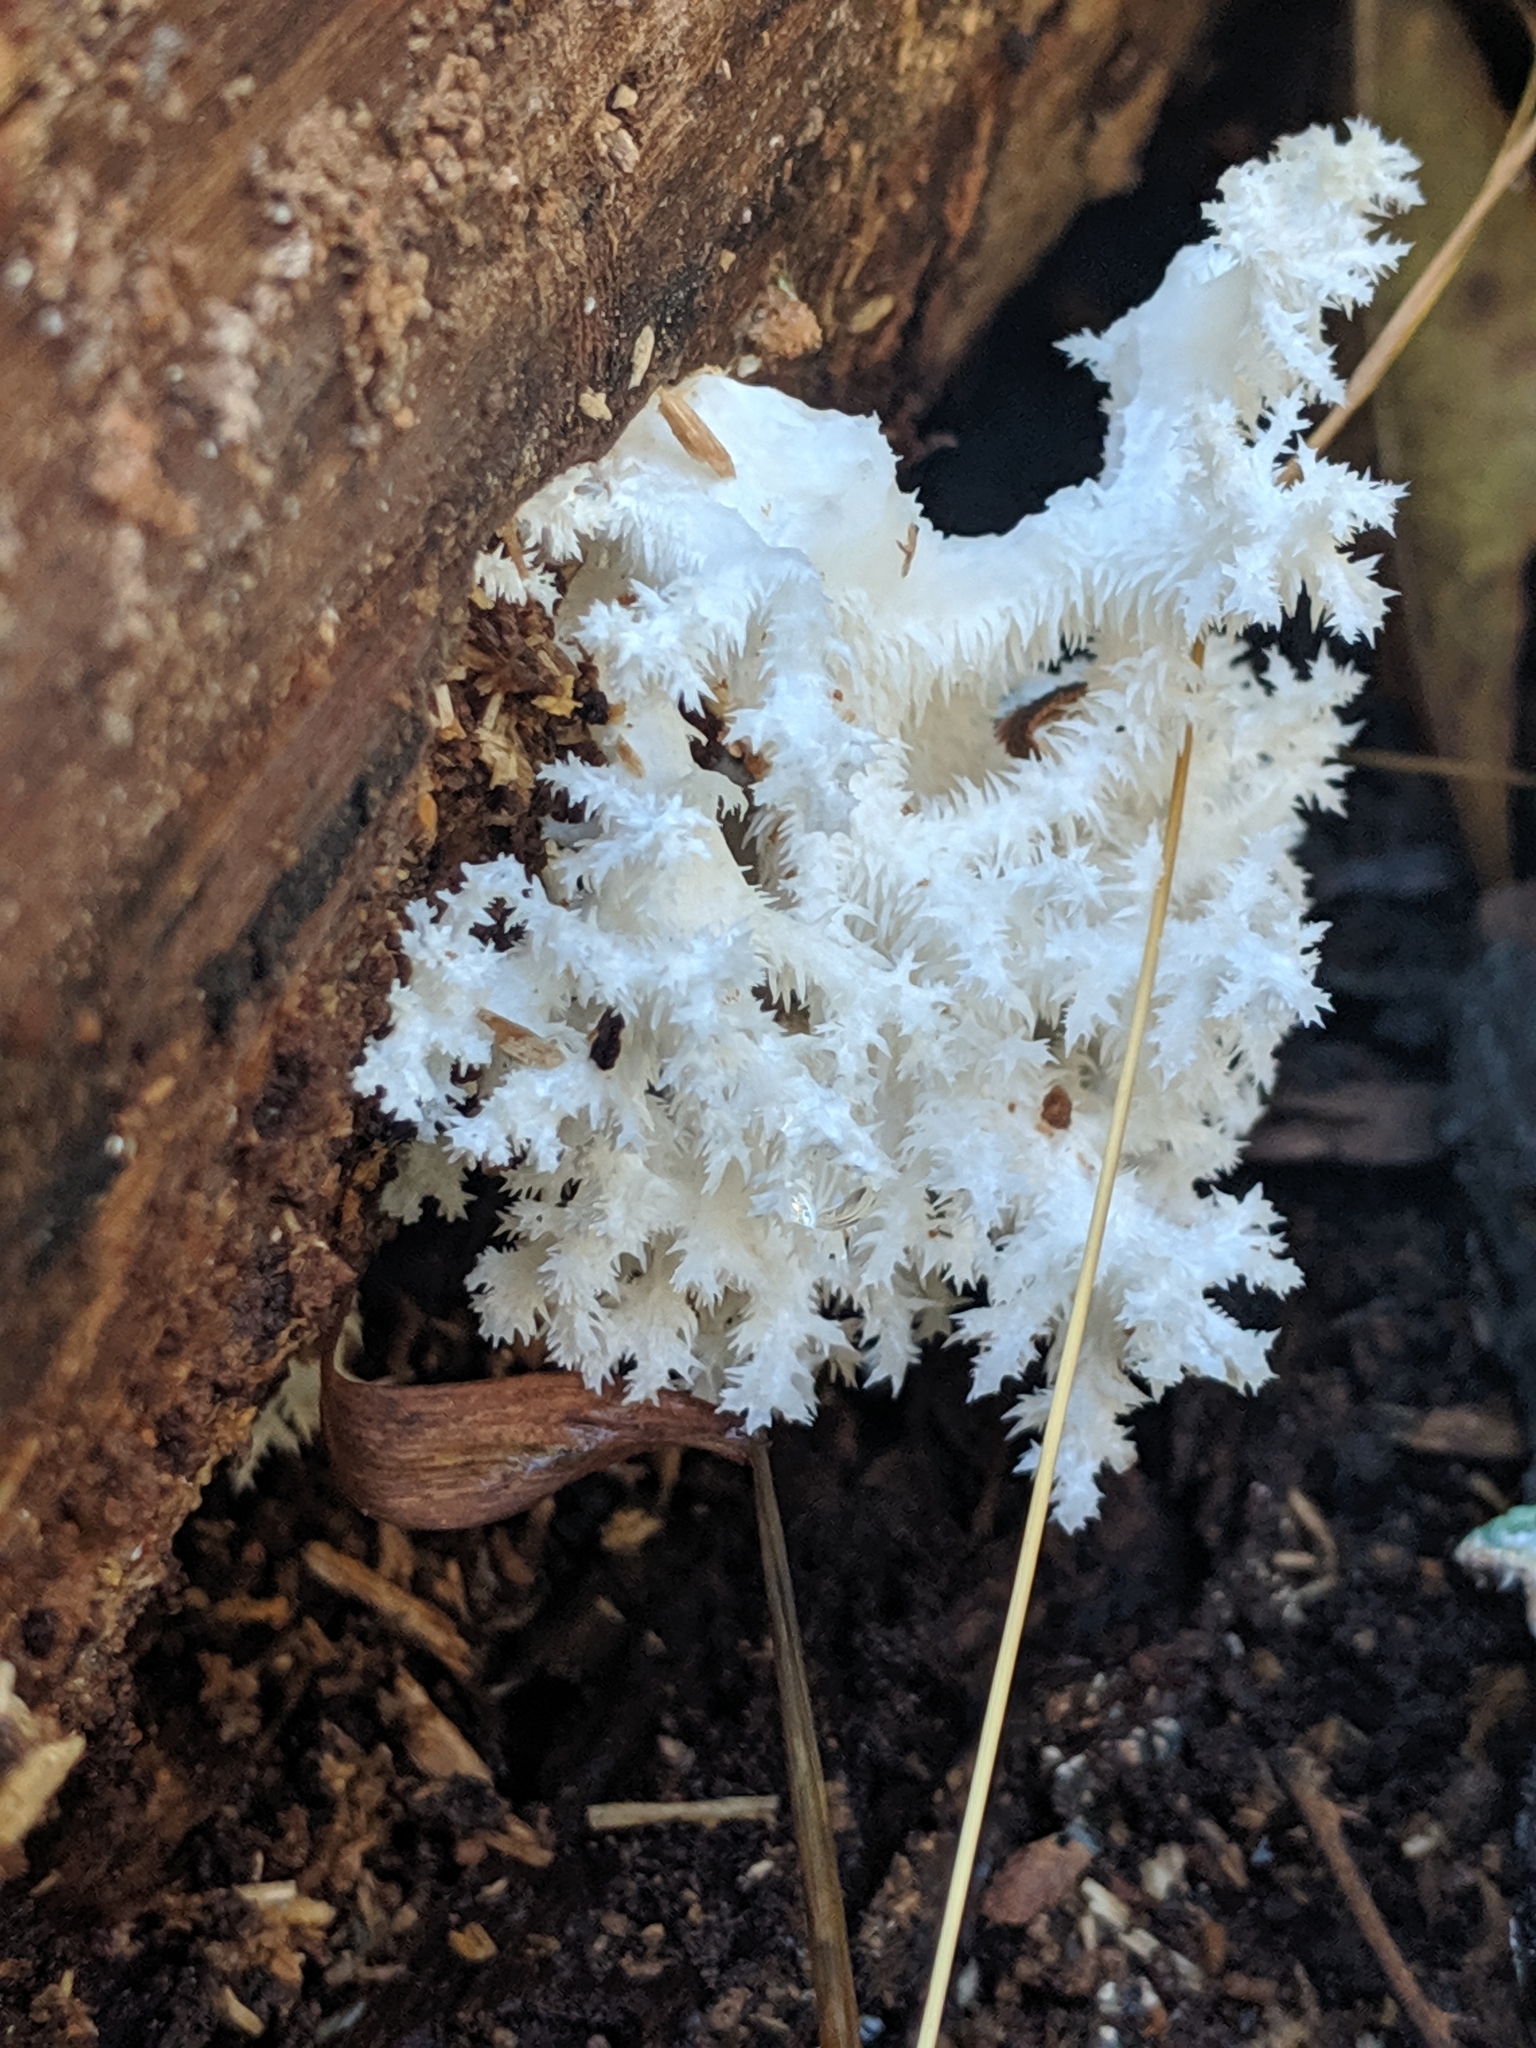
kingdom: Fungi
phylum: Basidiomycota
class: Agaricomycetes
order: Russulales
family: Hericiaceae
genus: Hericium
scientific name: Hericium coralloides
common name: Coral tooth
